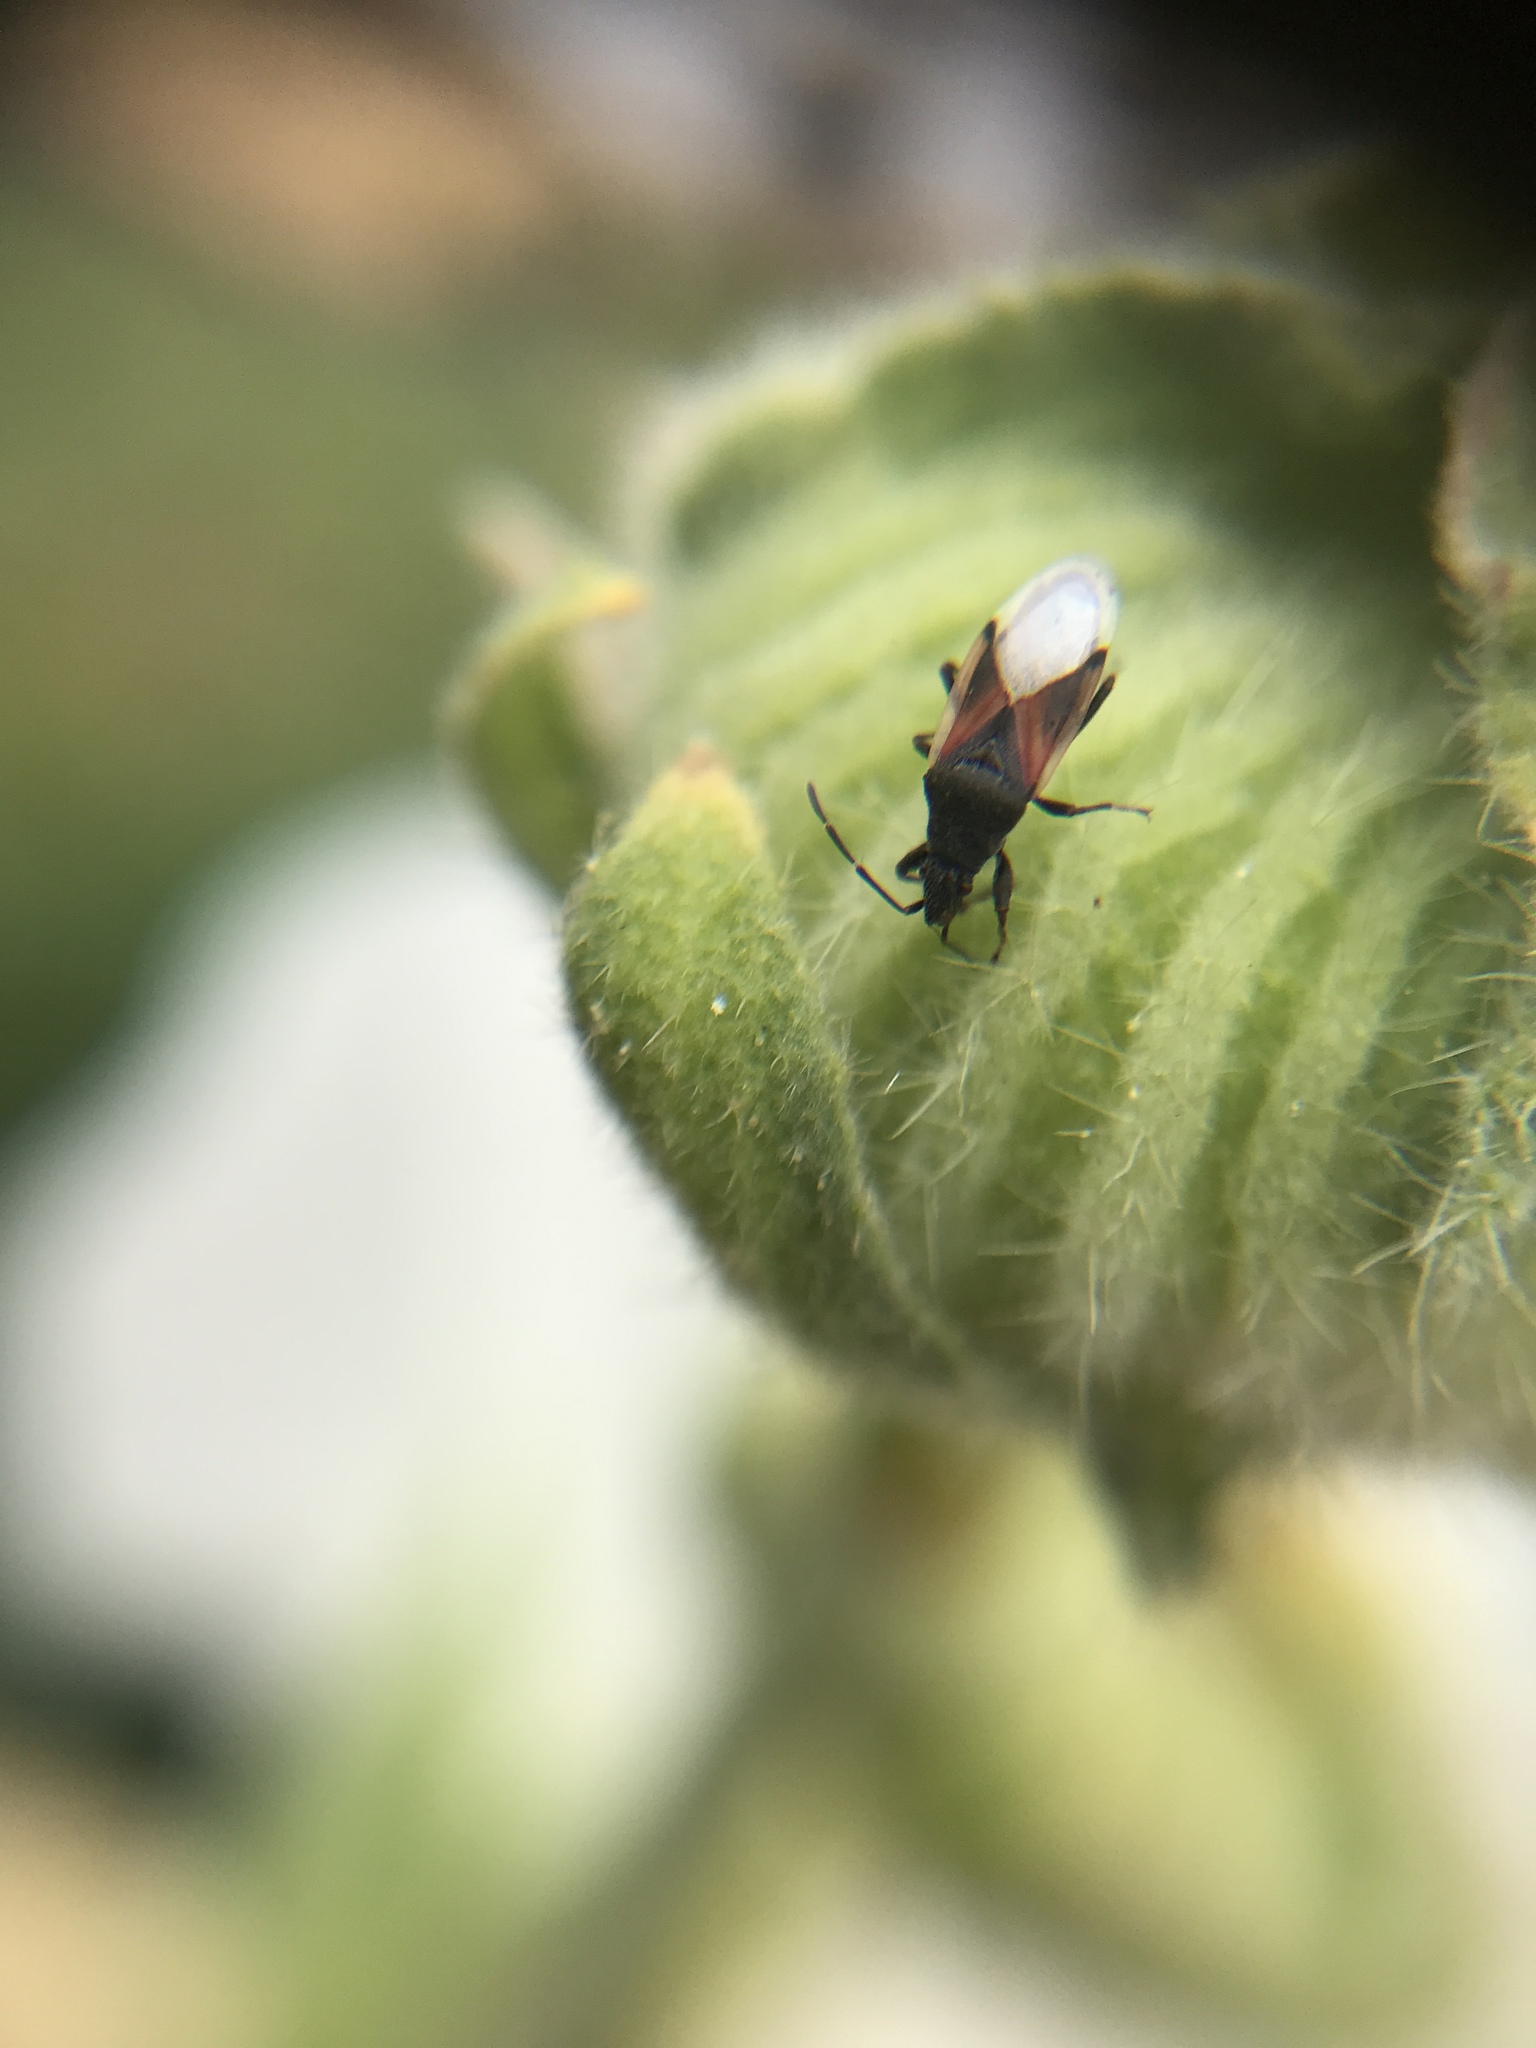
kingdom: Animalia
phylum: Arthropoda
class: Insecta
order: Hemiptera
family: Oxycarenidae
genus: Oxycarenus
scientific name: Oxycarenus lavaterae
